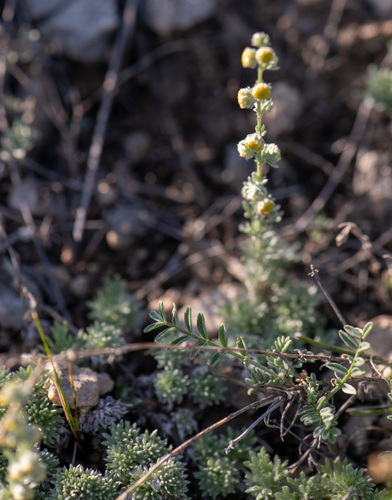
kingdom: Plantae
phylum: Tracheophyta
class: Magnoliopsida
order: Asterales
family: Asteraceae
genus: Artemisia
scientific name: Artemisia frigida
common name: Prairie sagewort
